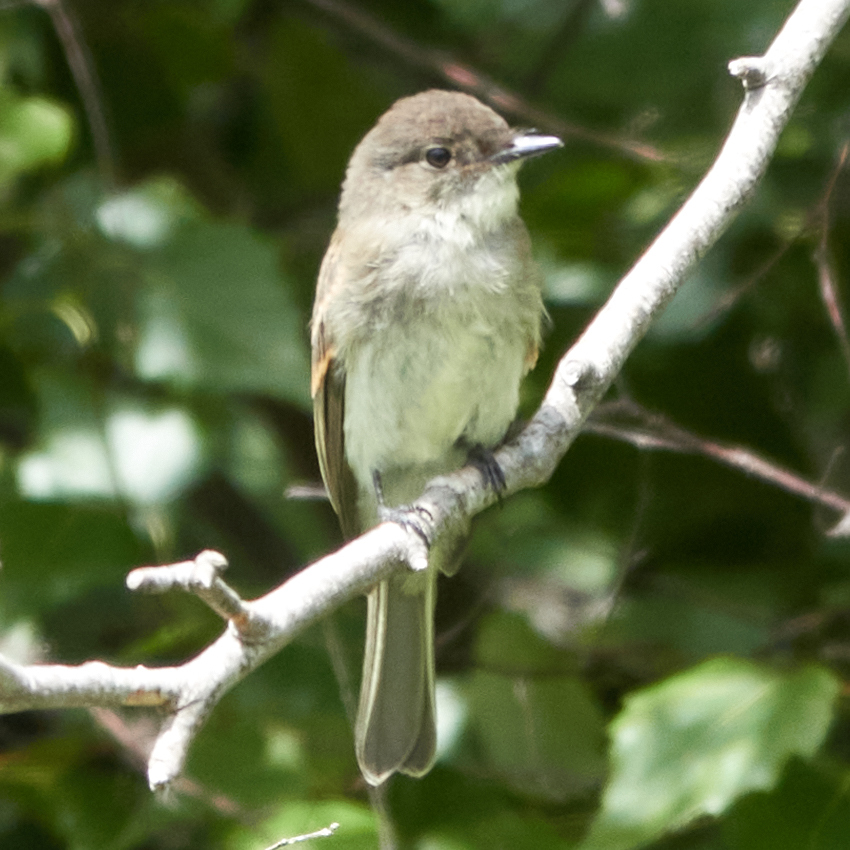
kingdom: Animalia
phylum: Chordata
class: Aves
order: Passeriformes
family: Tyrannidae
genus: Sayornis
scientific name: Sayornis phoebe
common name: Eastern phoebe
